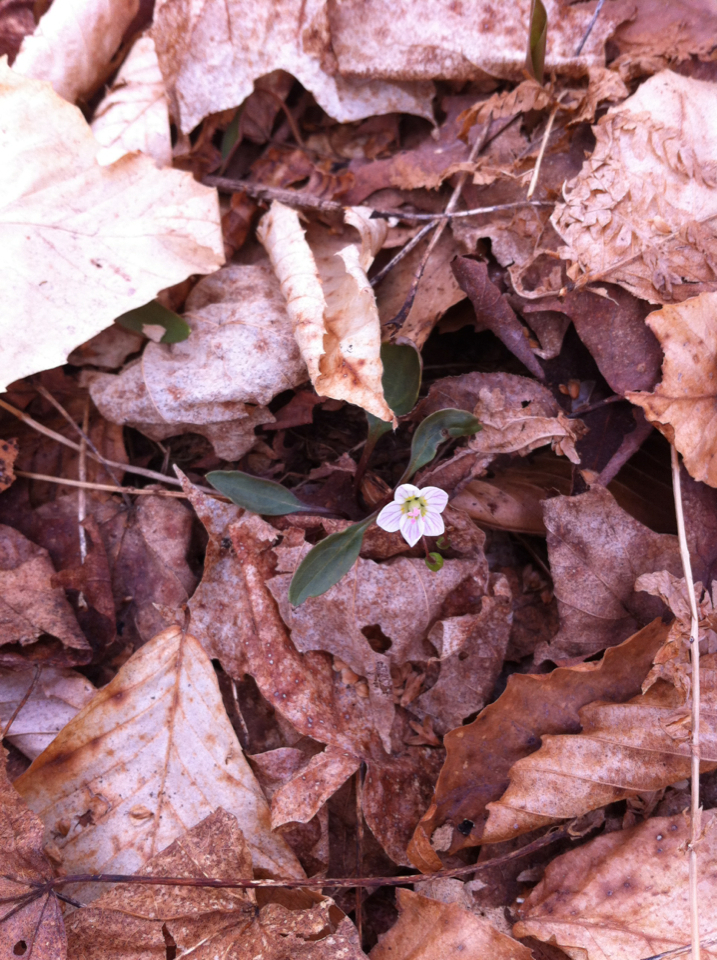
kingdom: Plantae
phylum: Tracheophyta
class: Magnoliopsida
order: Caryophyllales
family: Montiaceae
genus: Claytonia
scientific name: Claytonia caroliniana
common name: Carolina spring beauty
